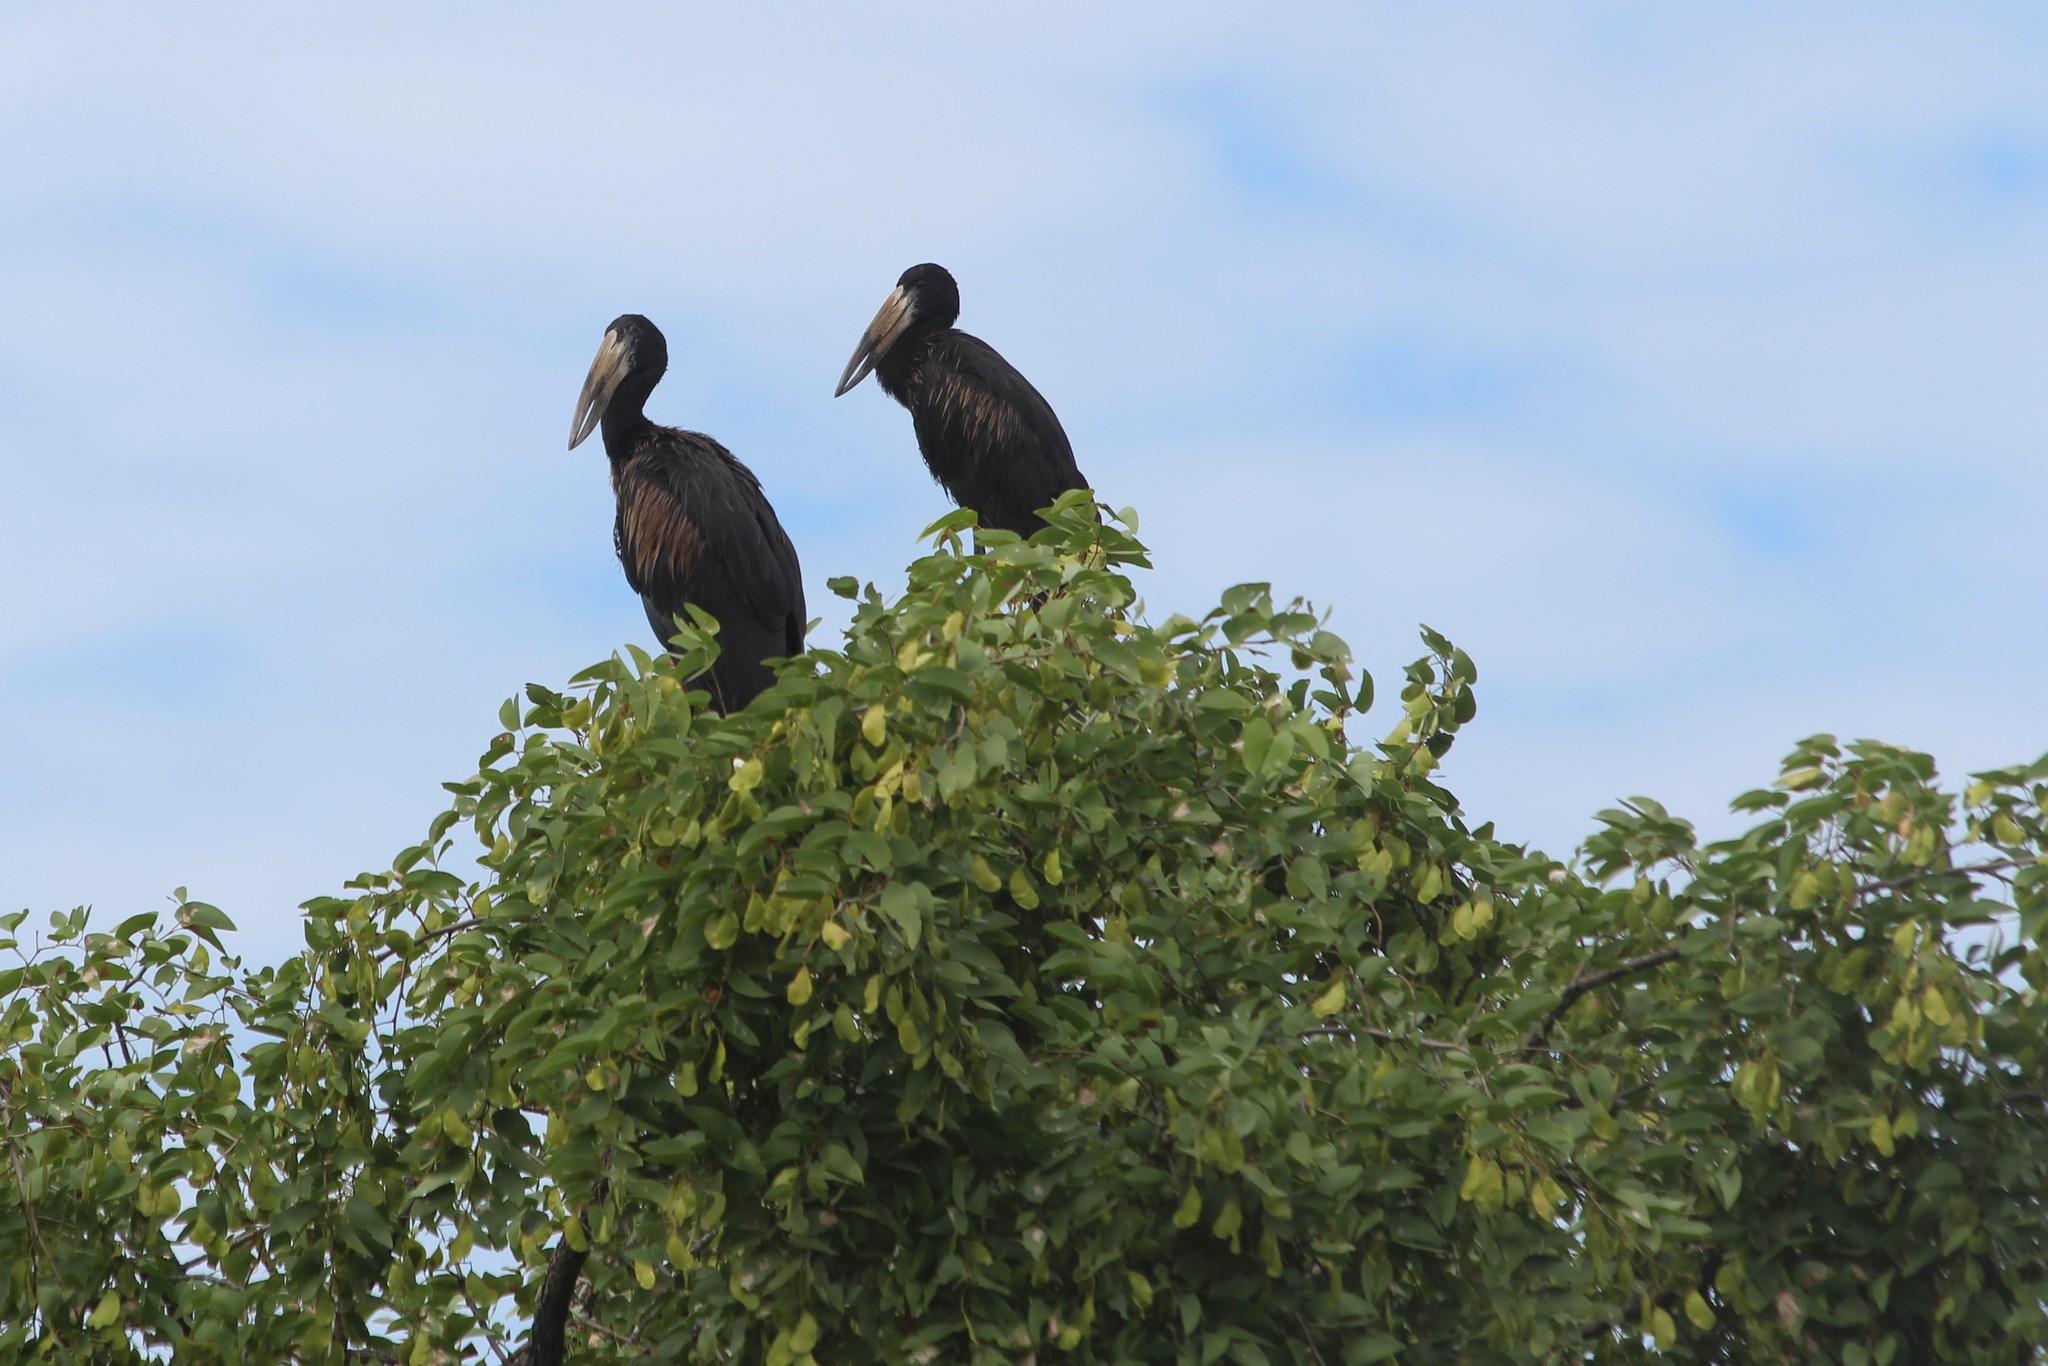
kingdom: Animalia
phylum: Chordata
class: Aves
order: Ciconiiformes
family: Ciconiidae
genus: Anastomus
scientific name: Anastomus lamelligerus
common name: African openbill
